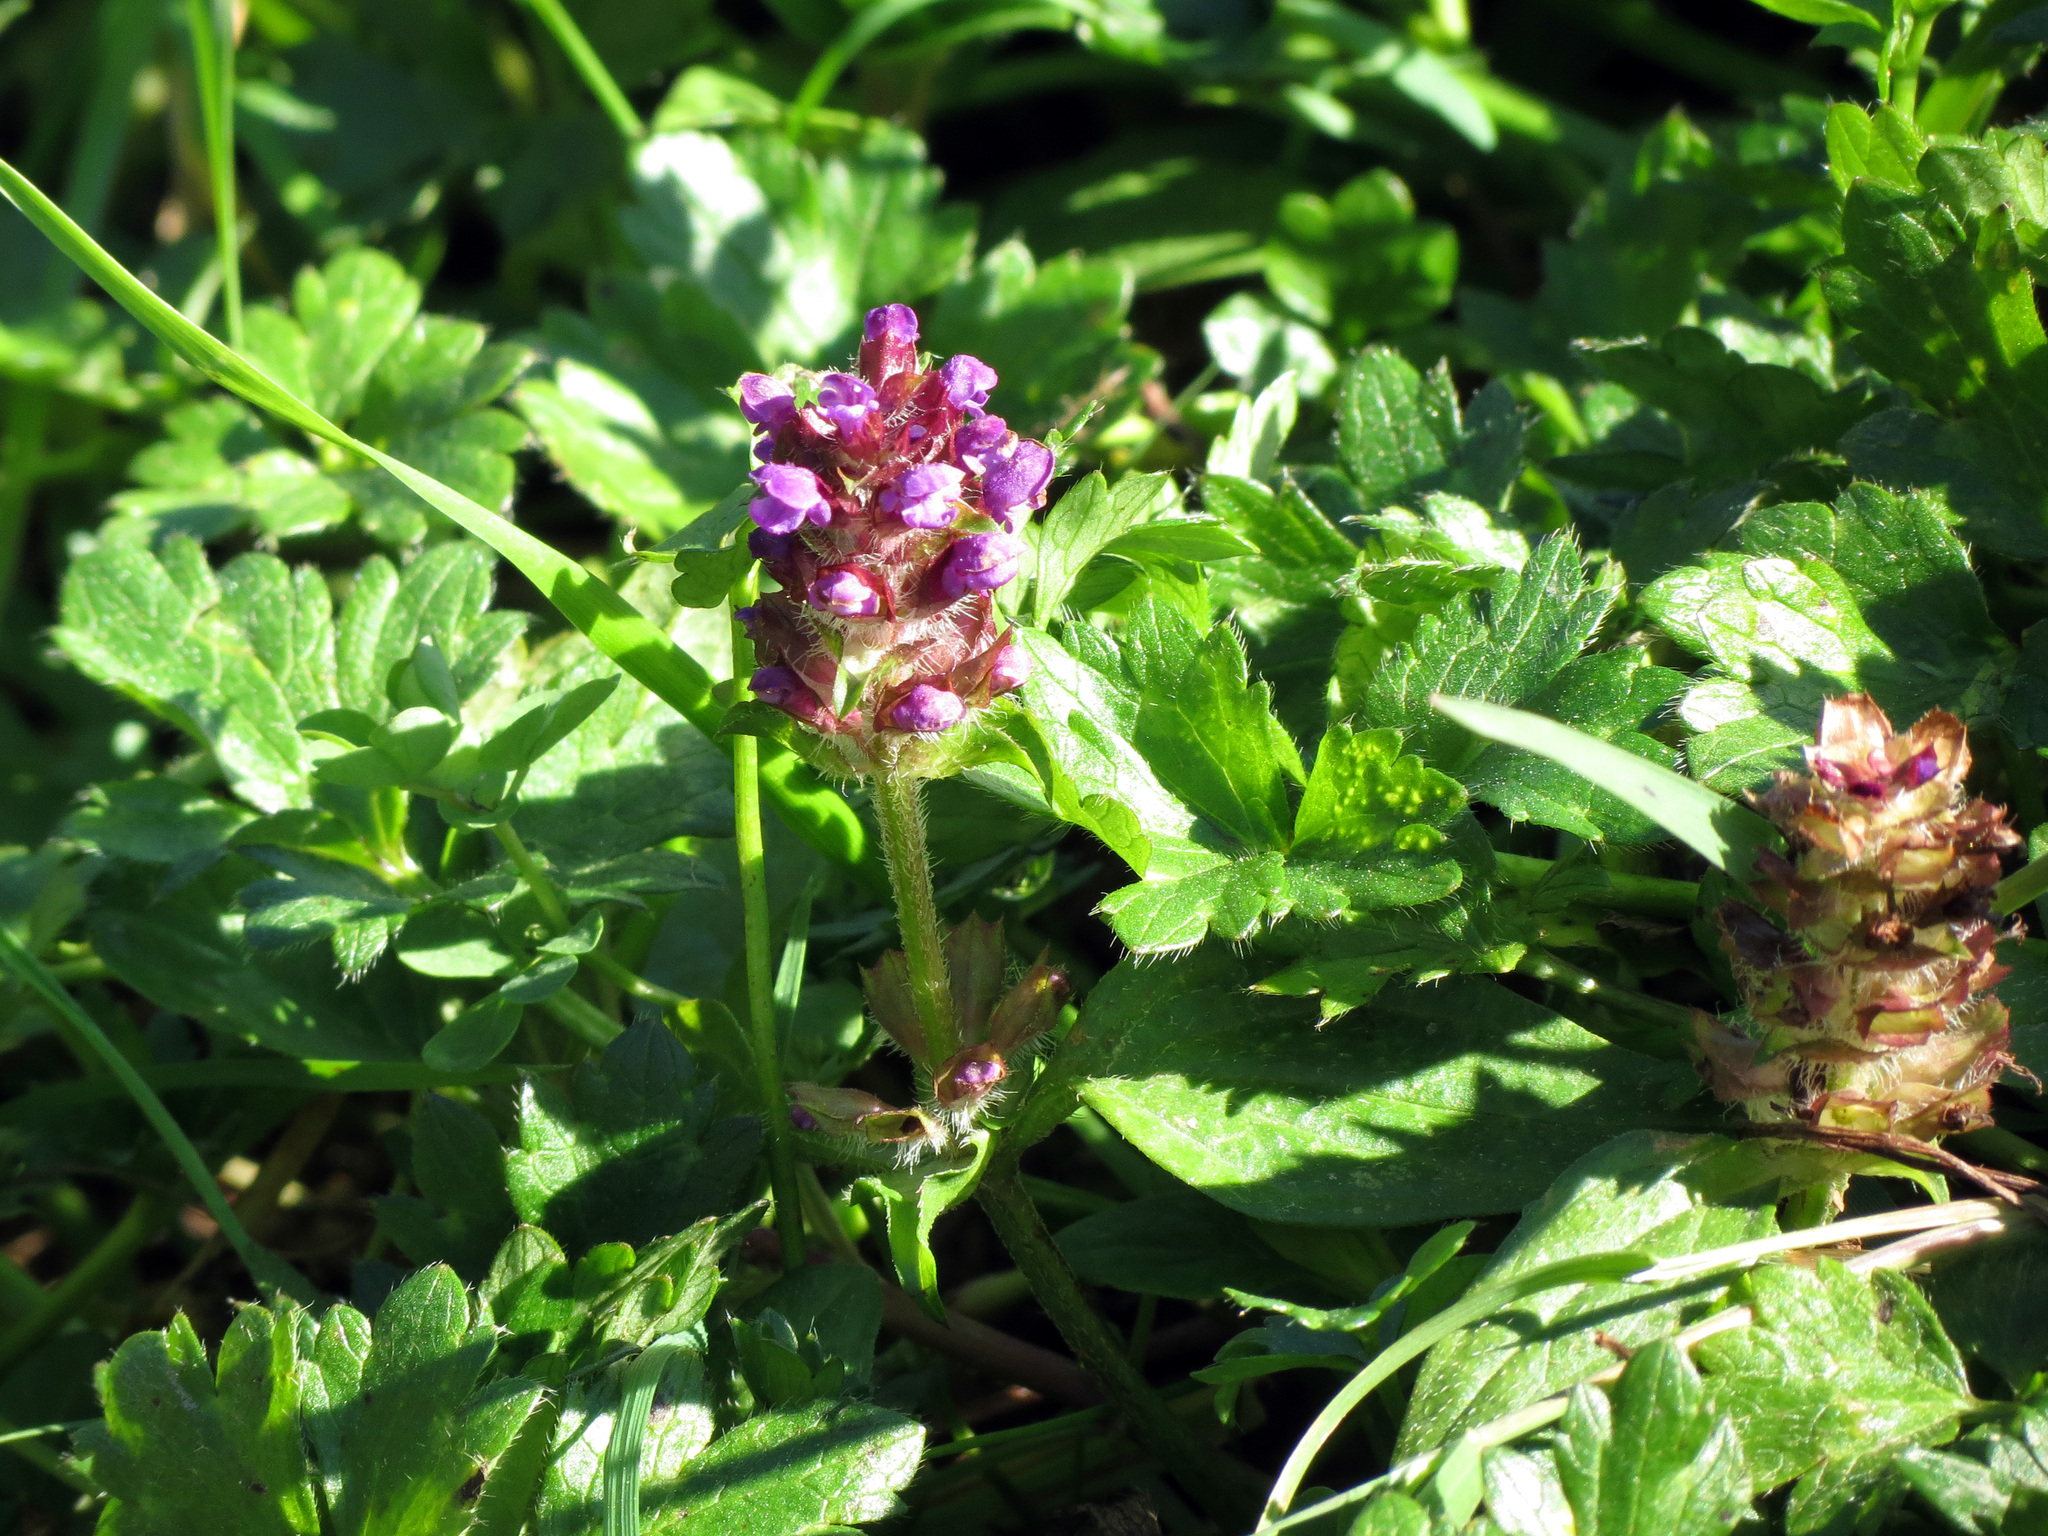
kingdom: Plantae
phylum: Tracheophyta
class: Magnoliopsida
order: Lamiales
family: Lamiaceae
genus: Prunella
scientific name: Prunella vulgaris
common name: Heal-all
